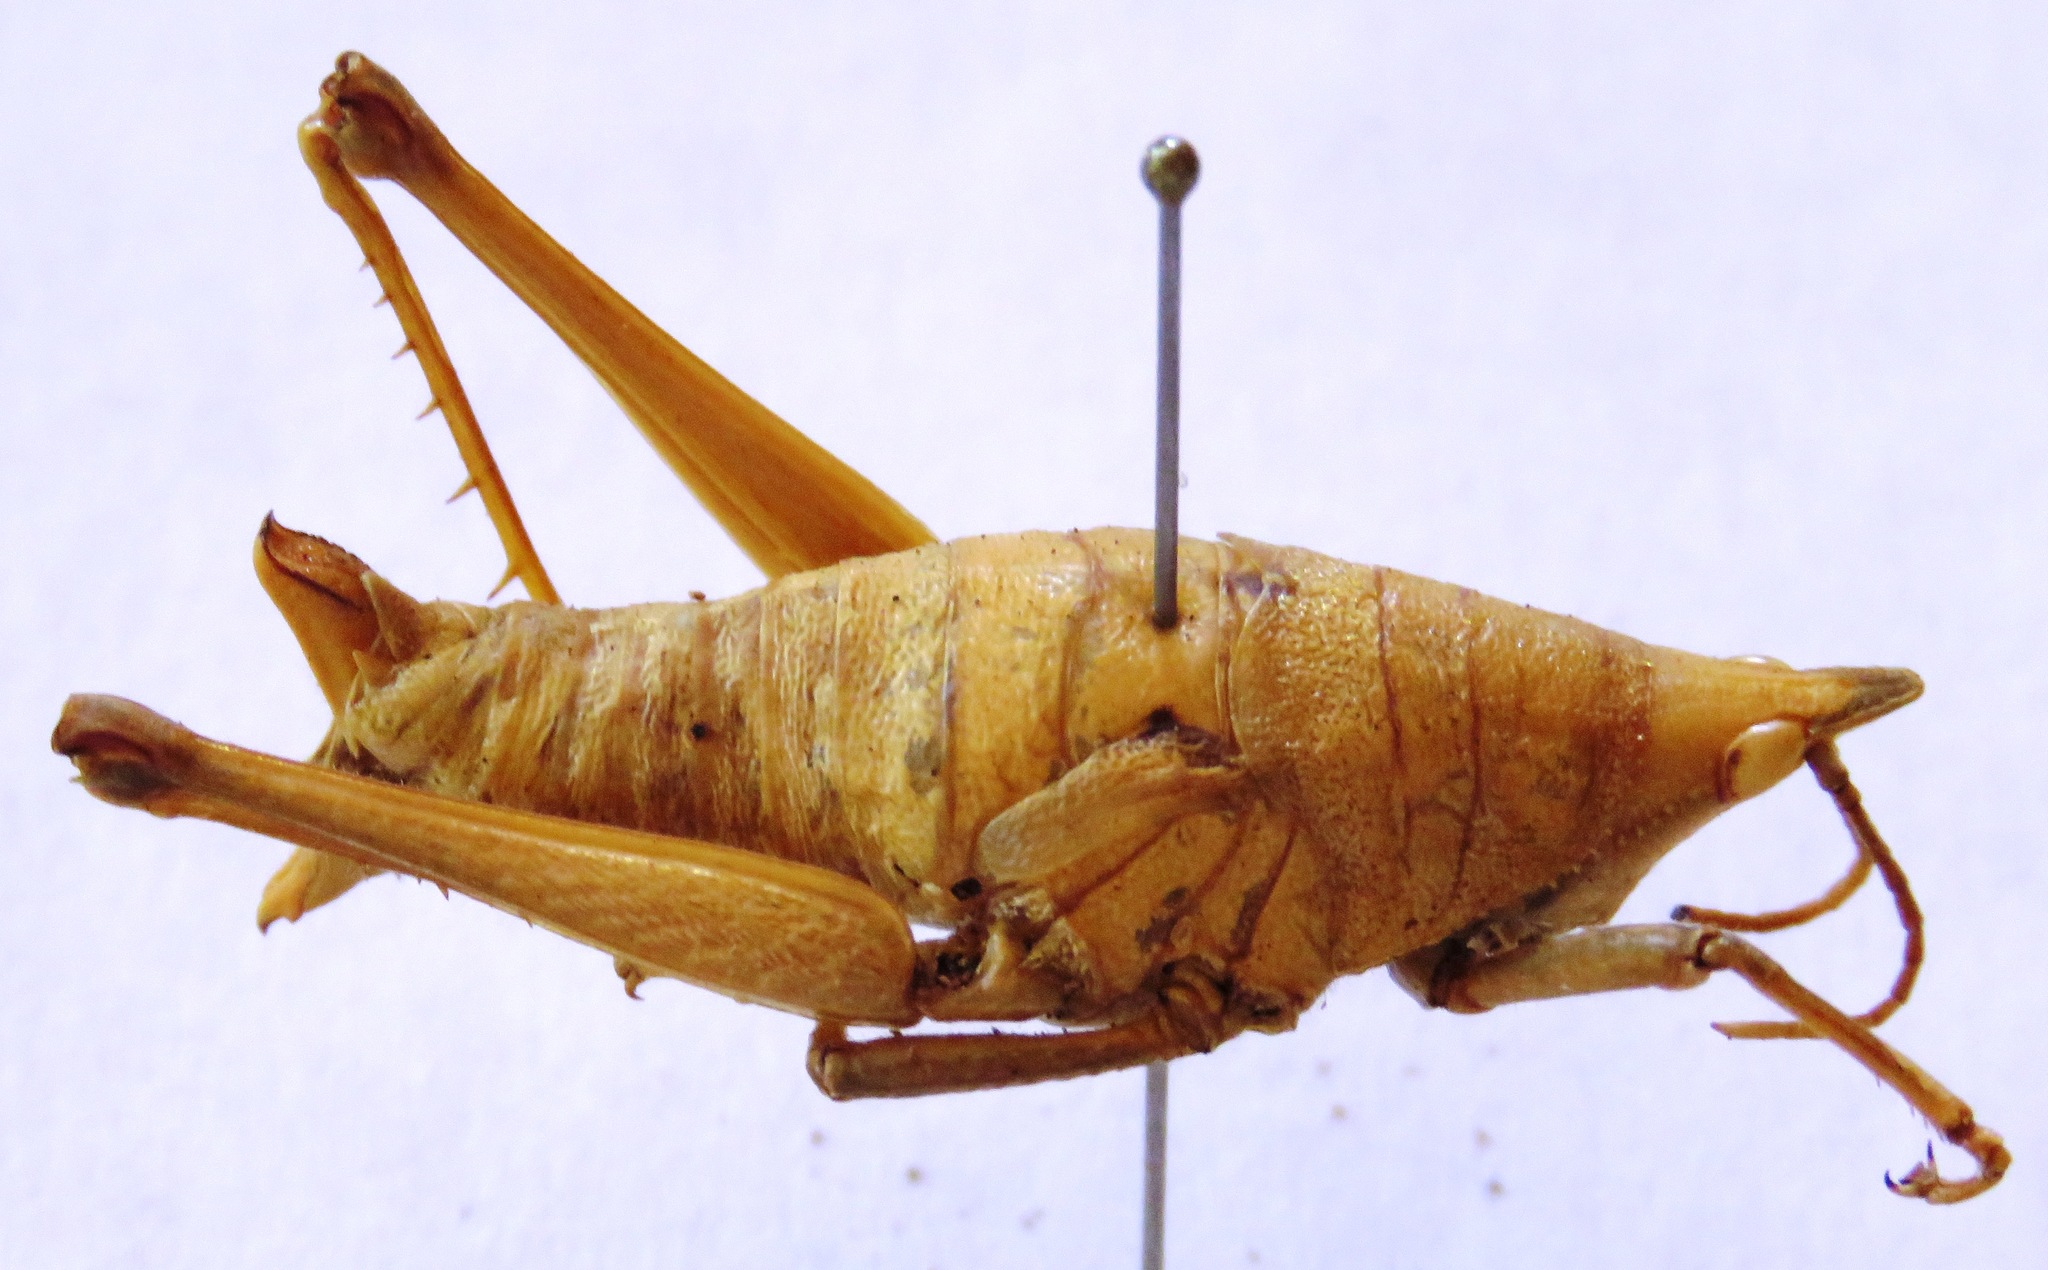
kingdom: Animalia
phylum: Arthropoda
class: Insecta
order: Orthoptera
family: Pyrgomorphidae
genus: Prosphena
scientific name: Prosphena scudderi
